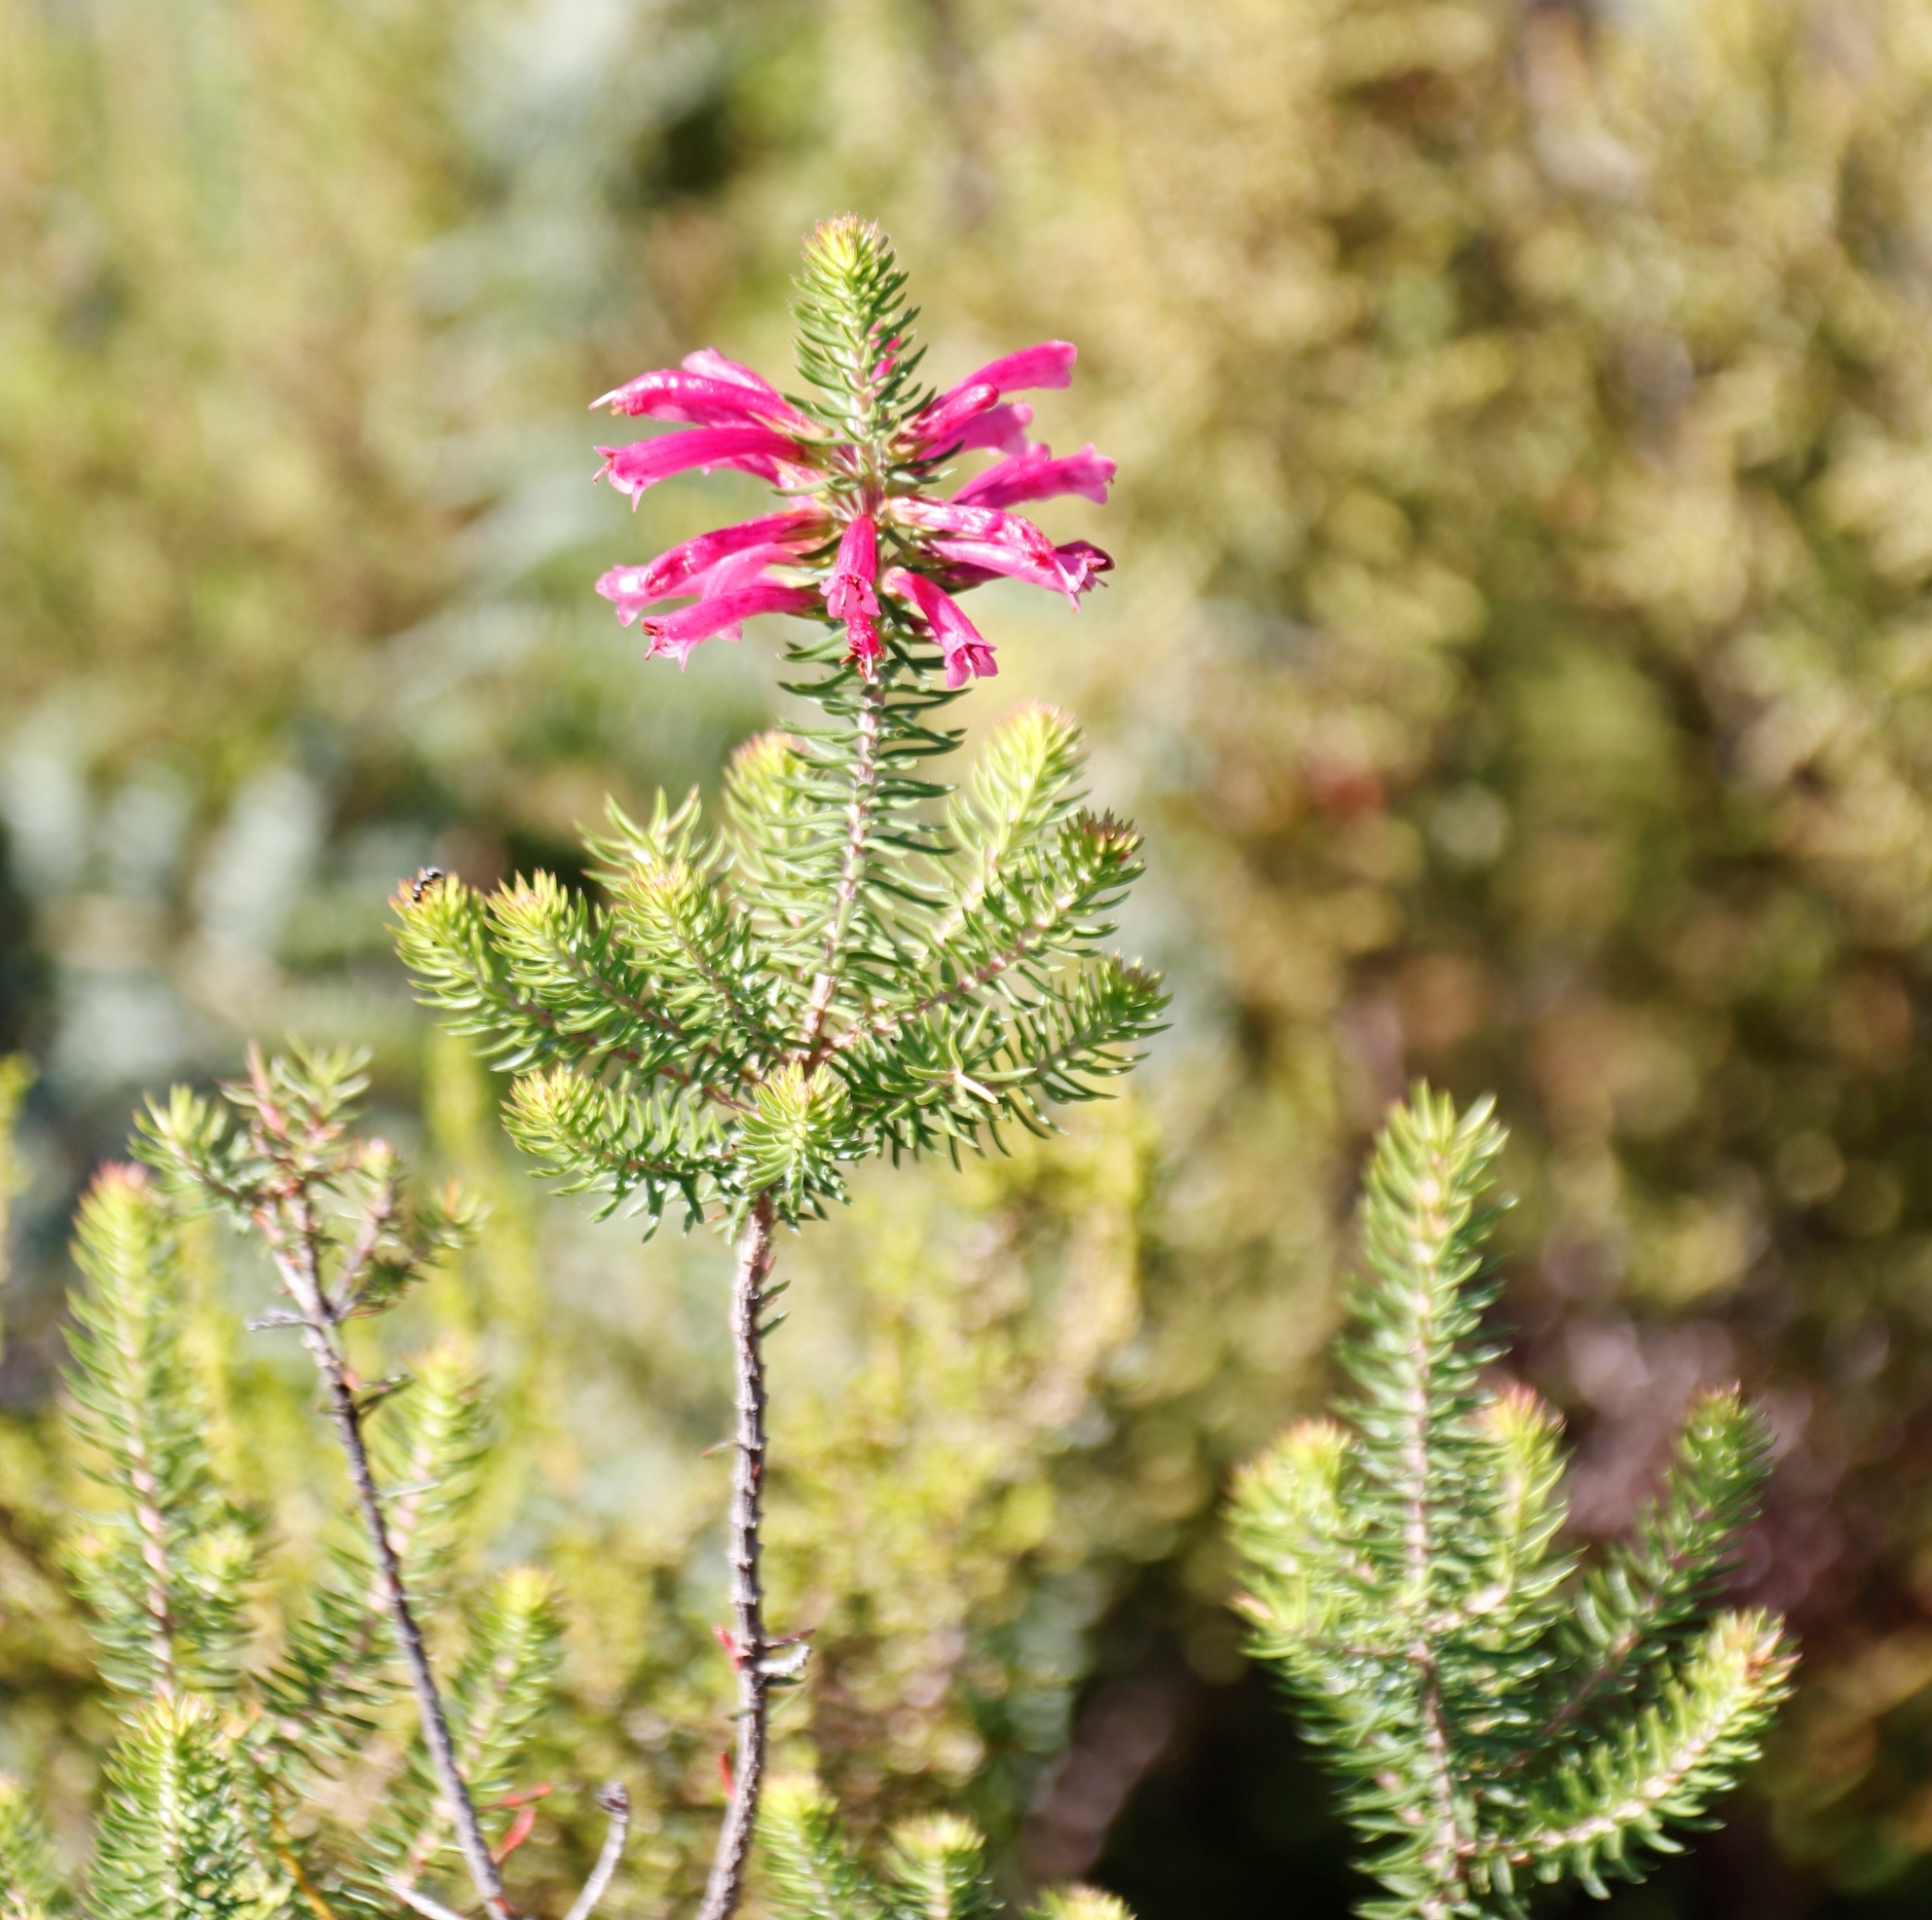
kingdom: Plantae
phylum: Tracheophyta
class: Magnoliopsida
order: Ericales
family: Ericaceae
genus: Erica
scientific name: Erica abietina
